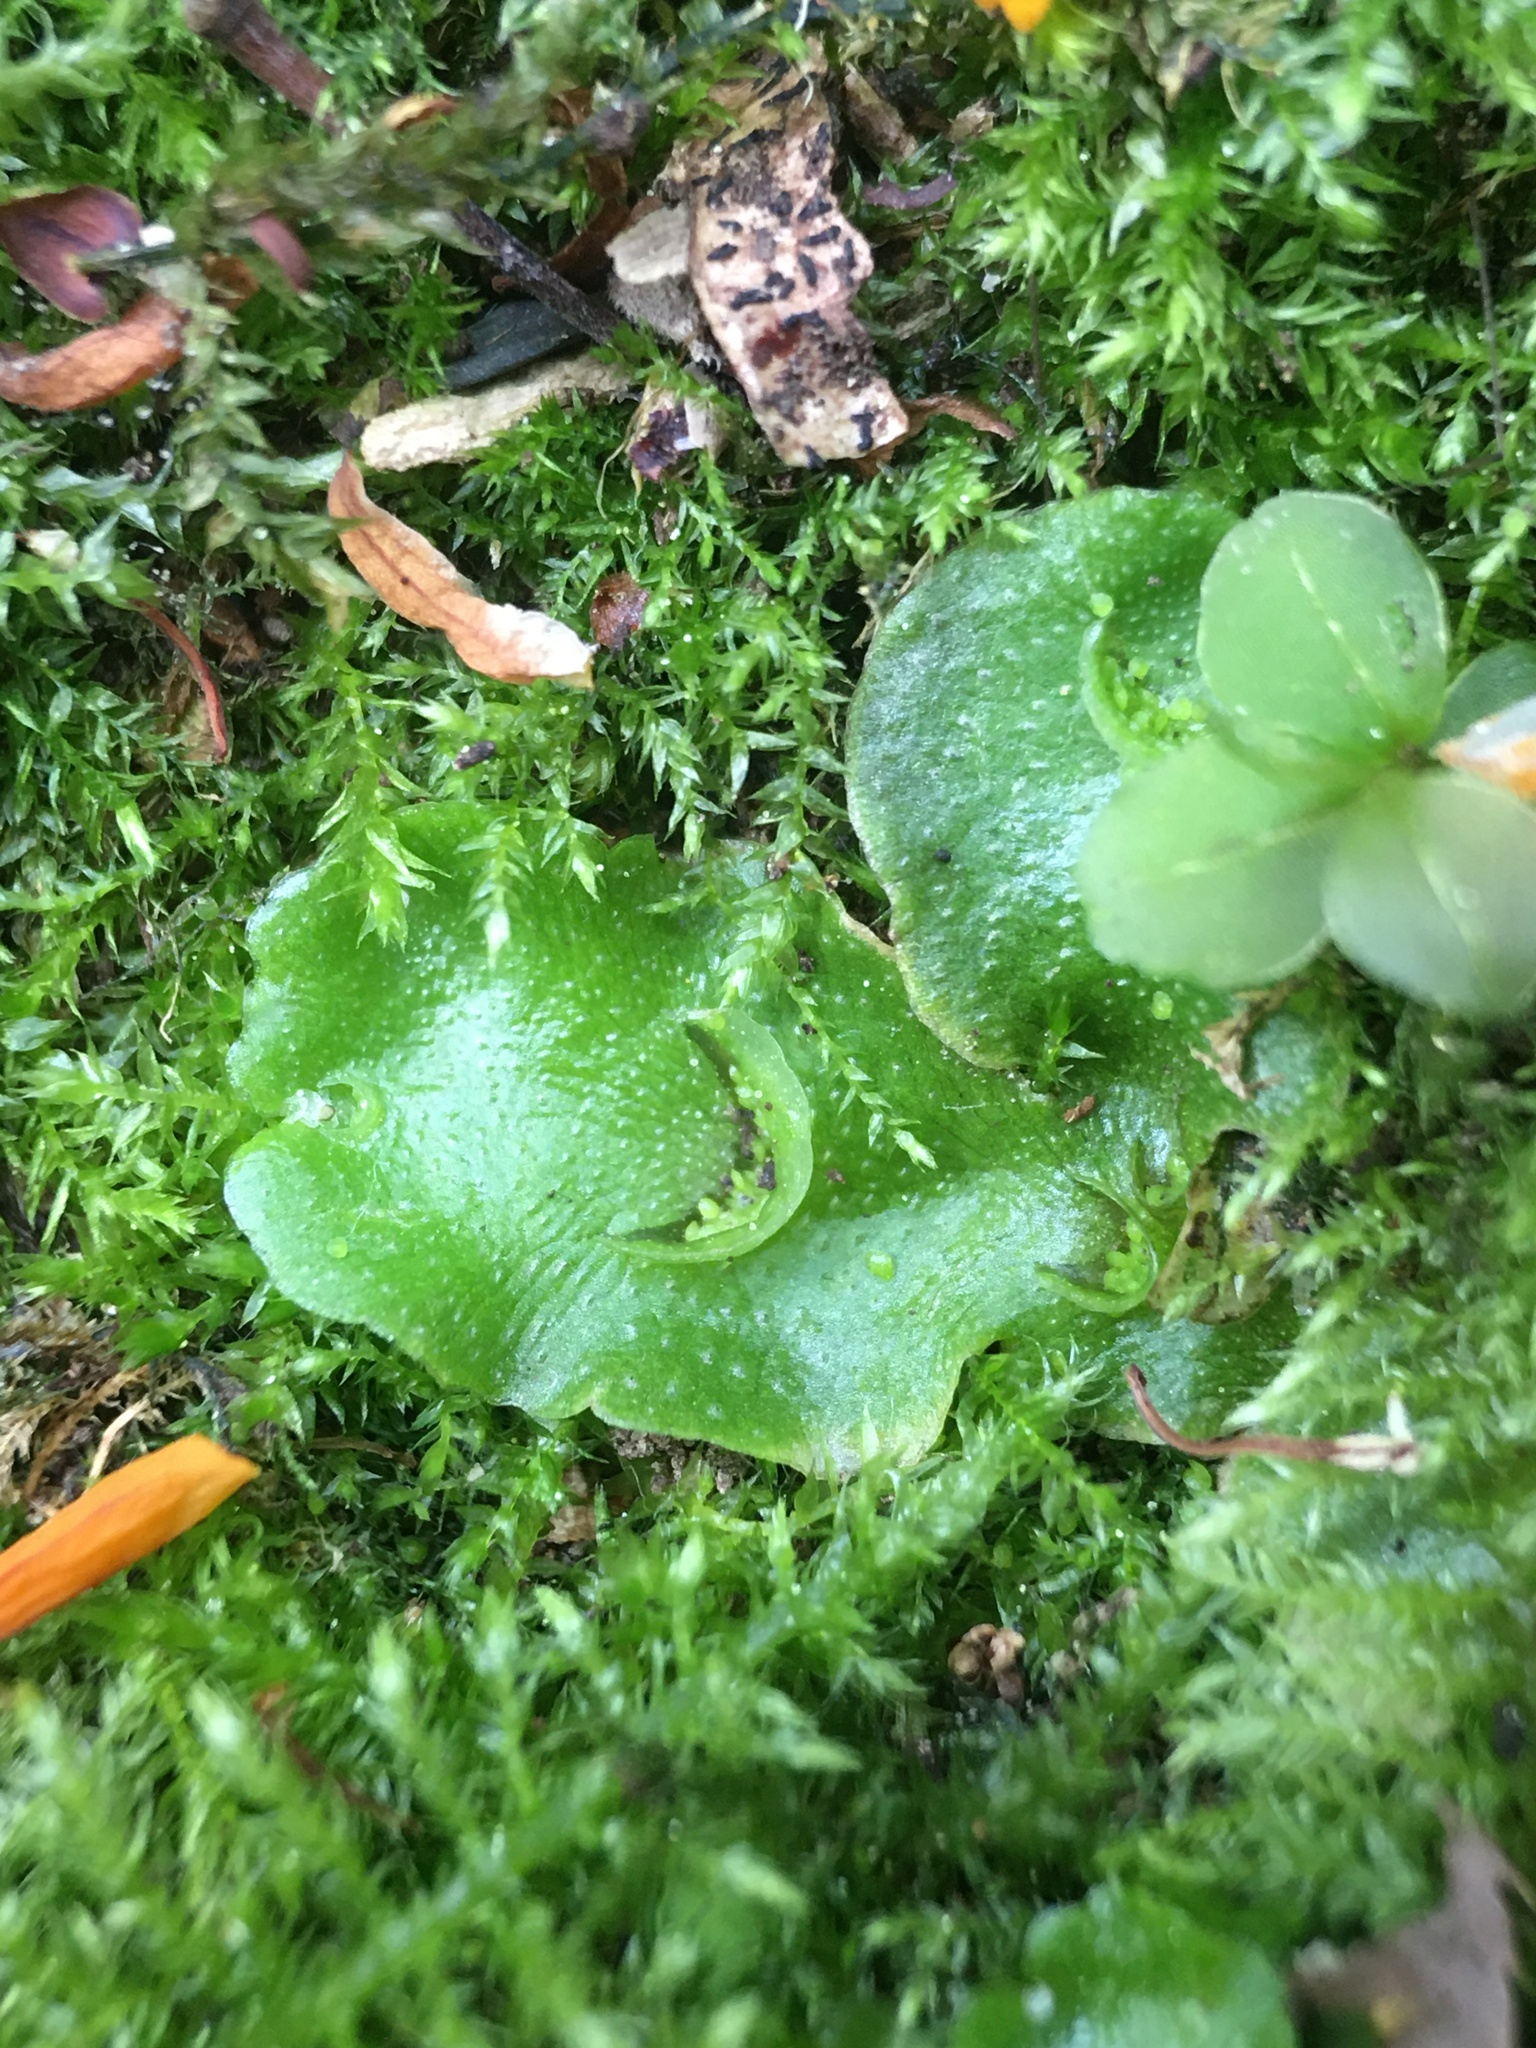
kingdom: Plantae
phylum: Marchantiophyta
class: Marchantiopsida
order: Lunulariales
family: Lunulariaceae
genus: Lunularia
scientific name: Lunularia cruciata
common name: Crescent-cup liverwort
